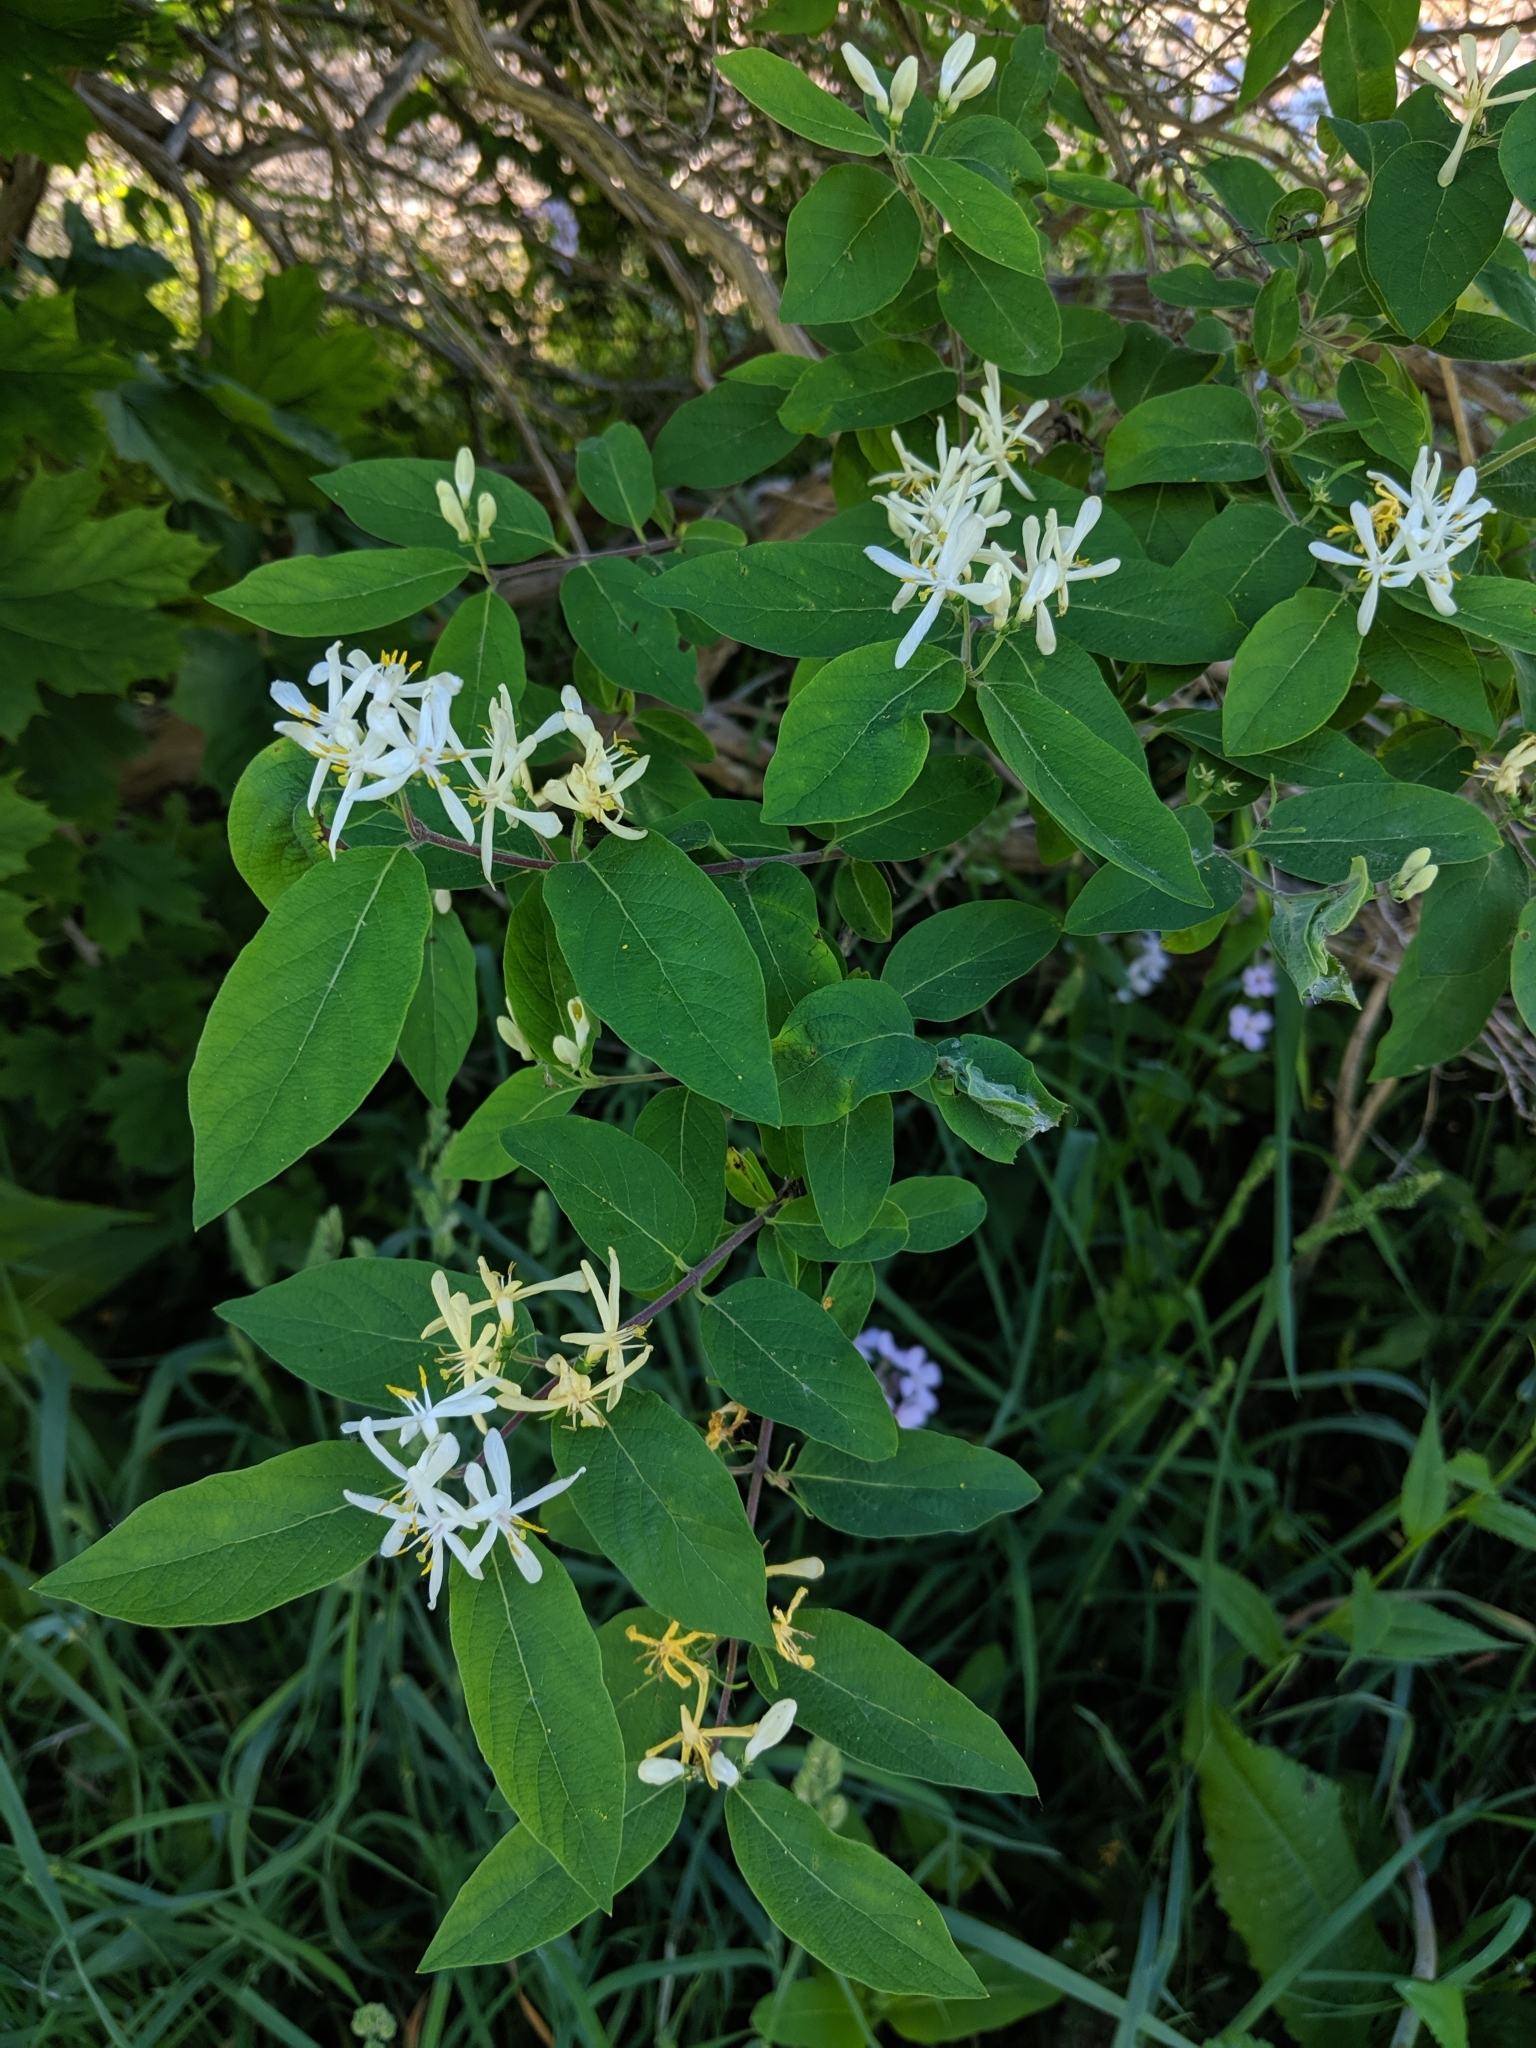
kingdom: Plantae
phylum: Tracheophyta
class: Magnoliopsida
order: Dipsacales
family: Caprifoliaceae
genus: Lonicera
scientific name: Lonicera morrowii
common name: Morrow's honeysuckle
